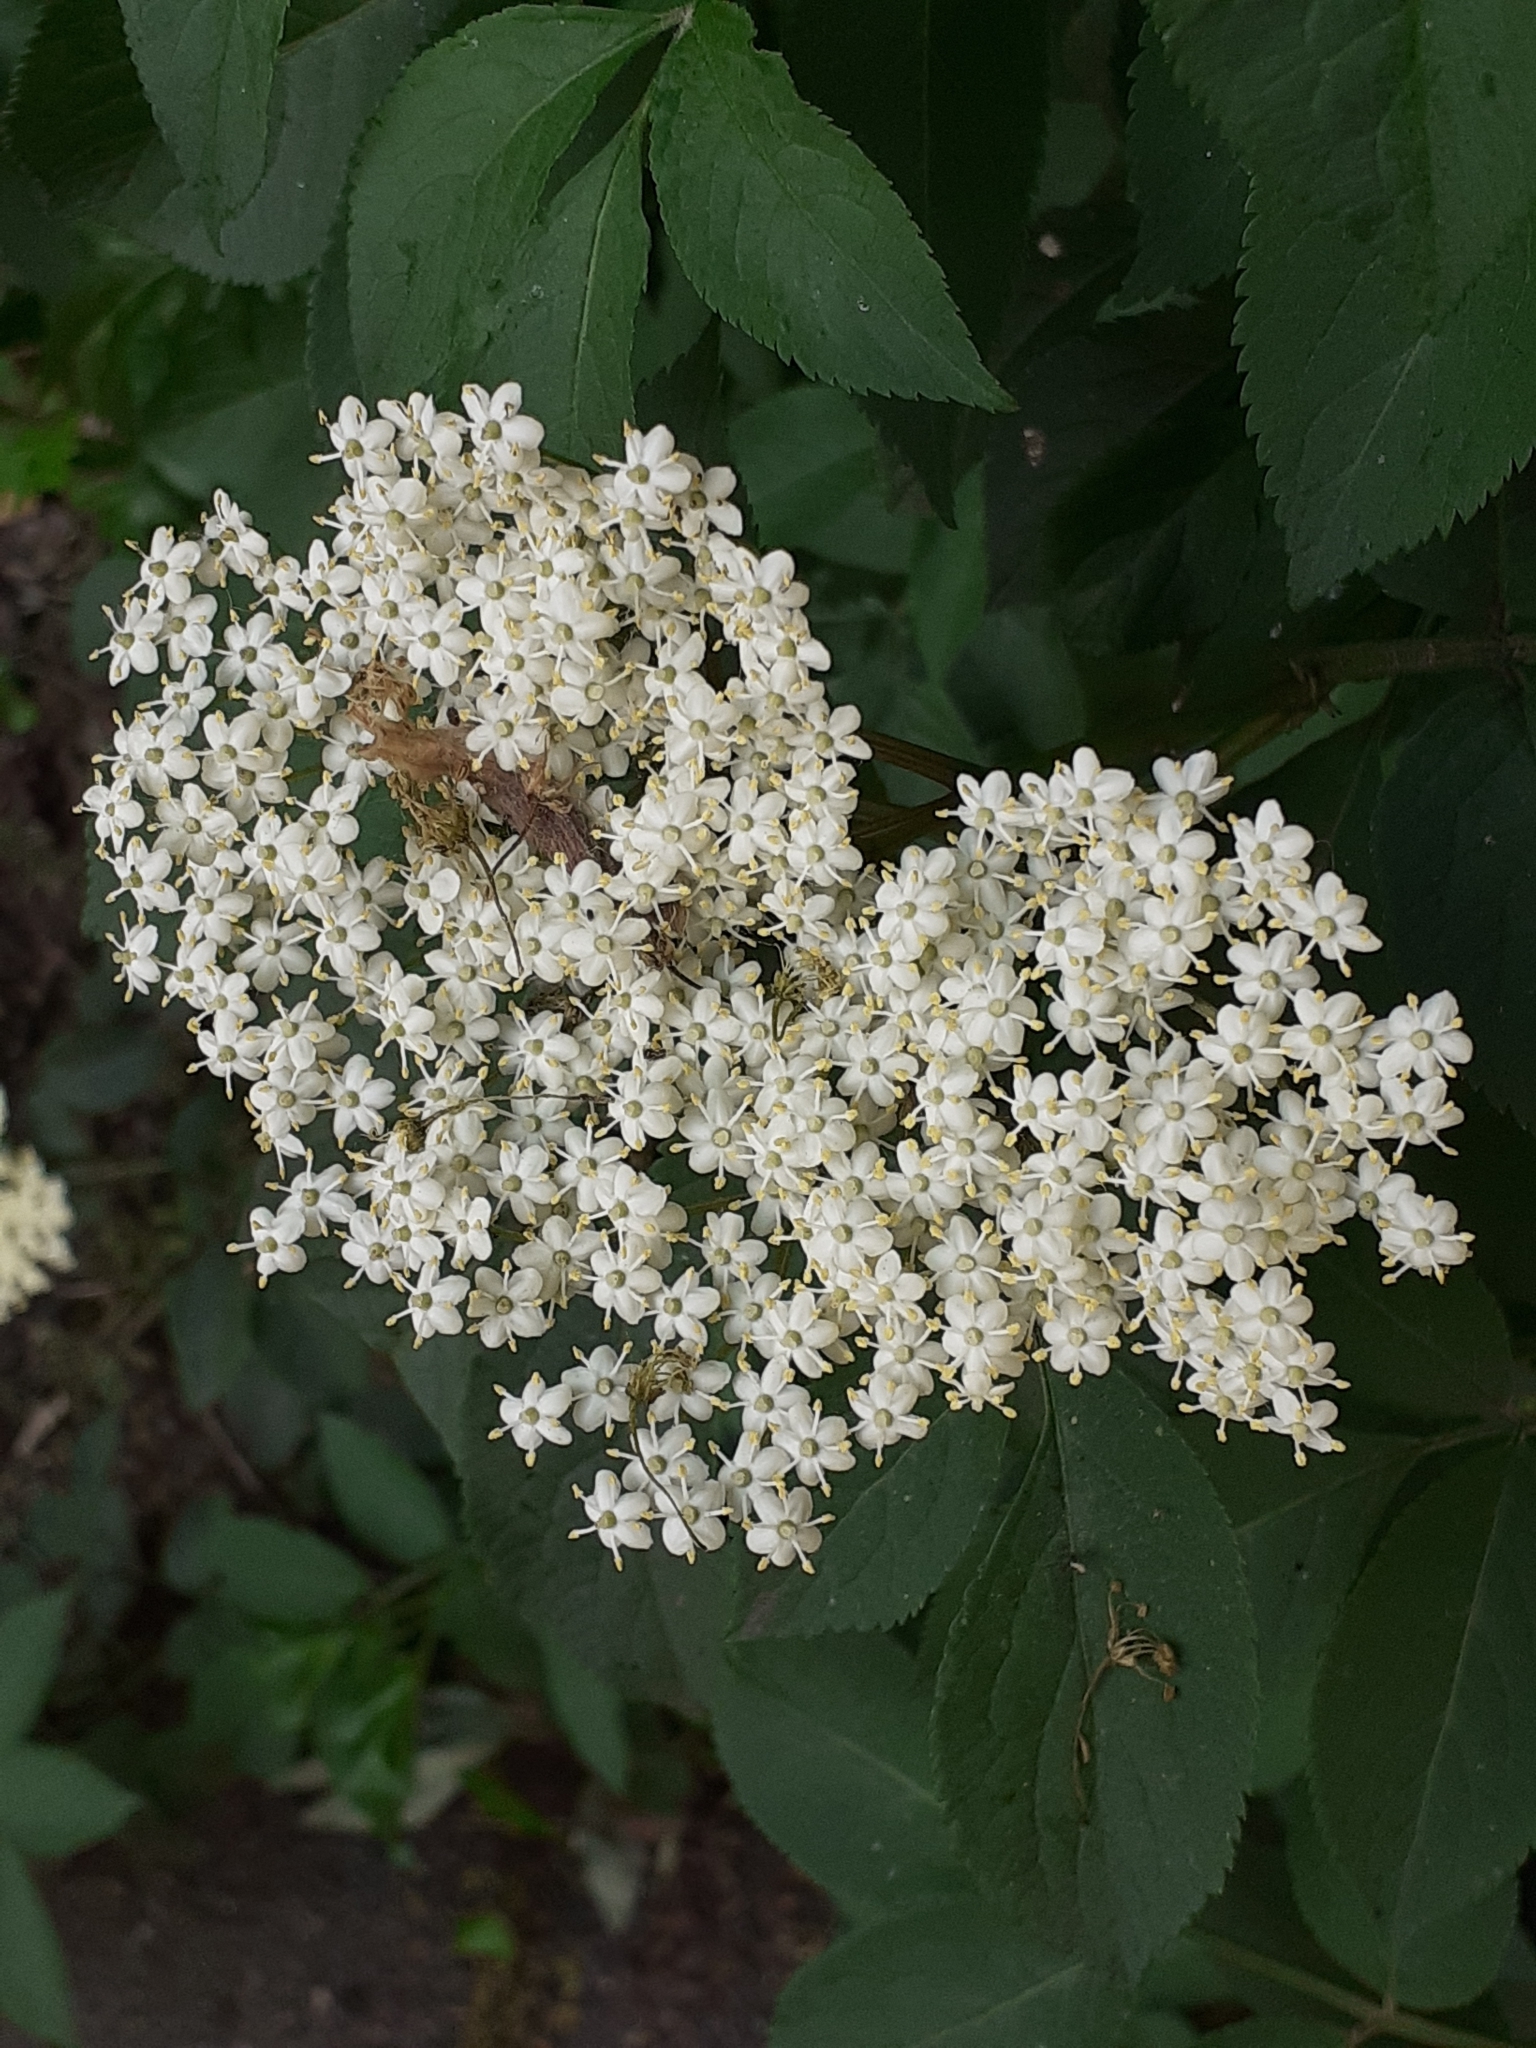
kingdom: Plantae
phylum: Tracheophyta
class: Magnoliopsida
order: Dipsacales
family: Viburnaceae
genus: Sambucus
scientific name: Sambucus nigra
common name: Elder
